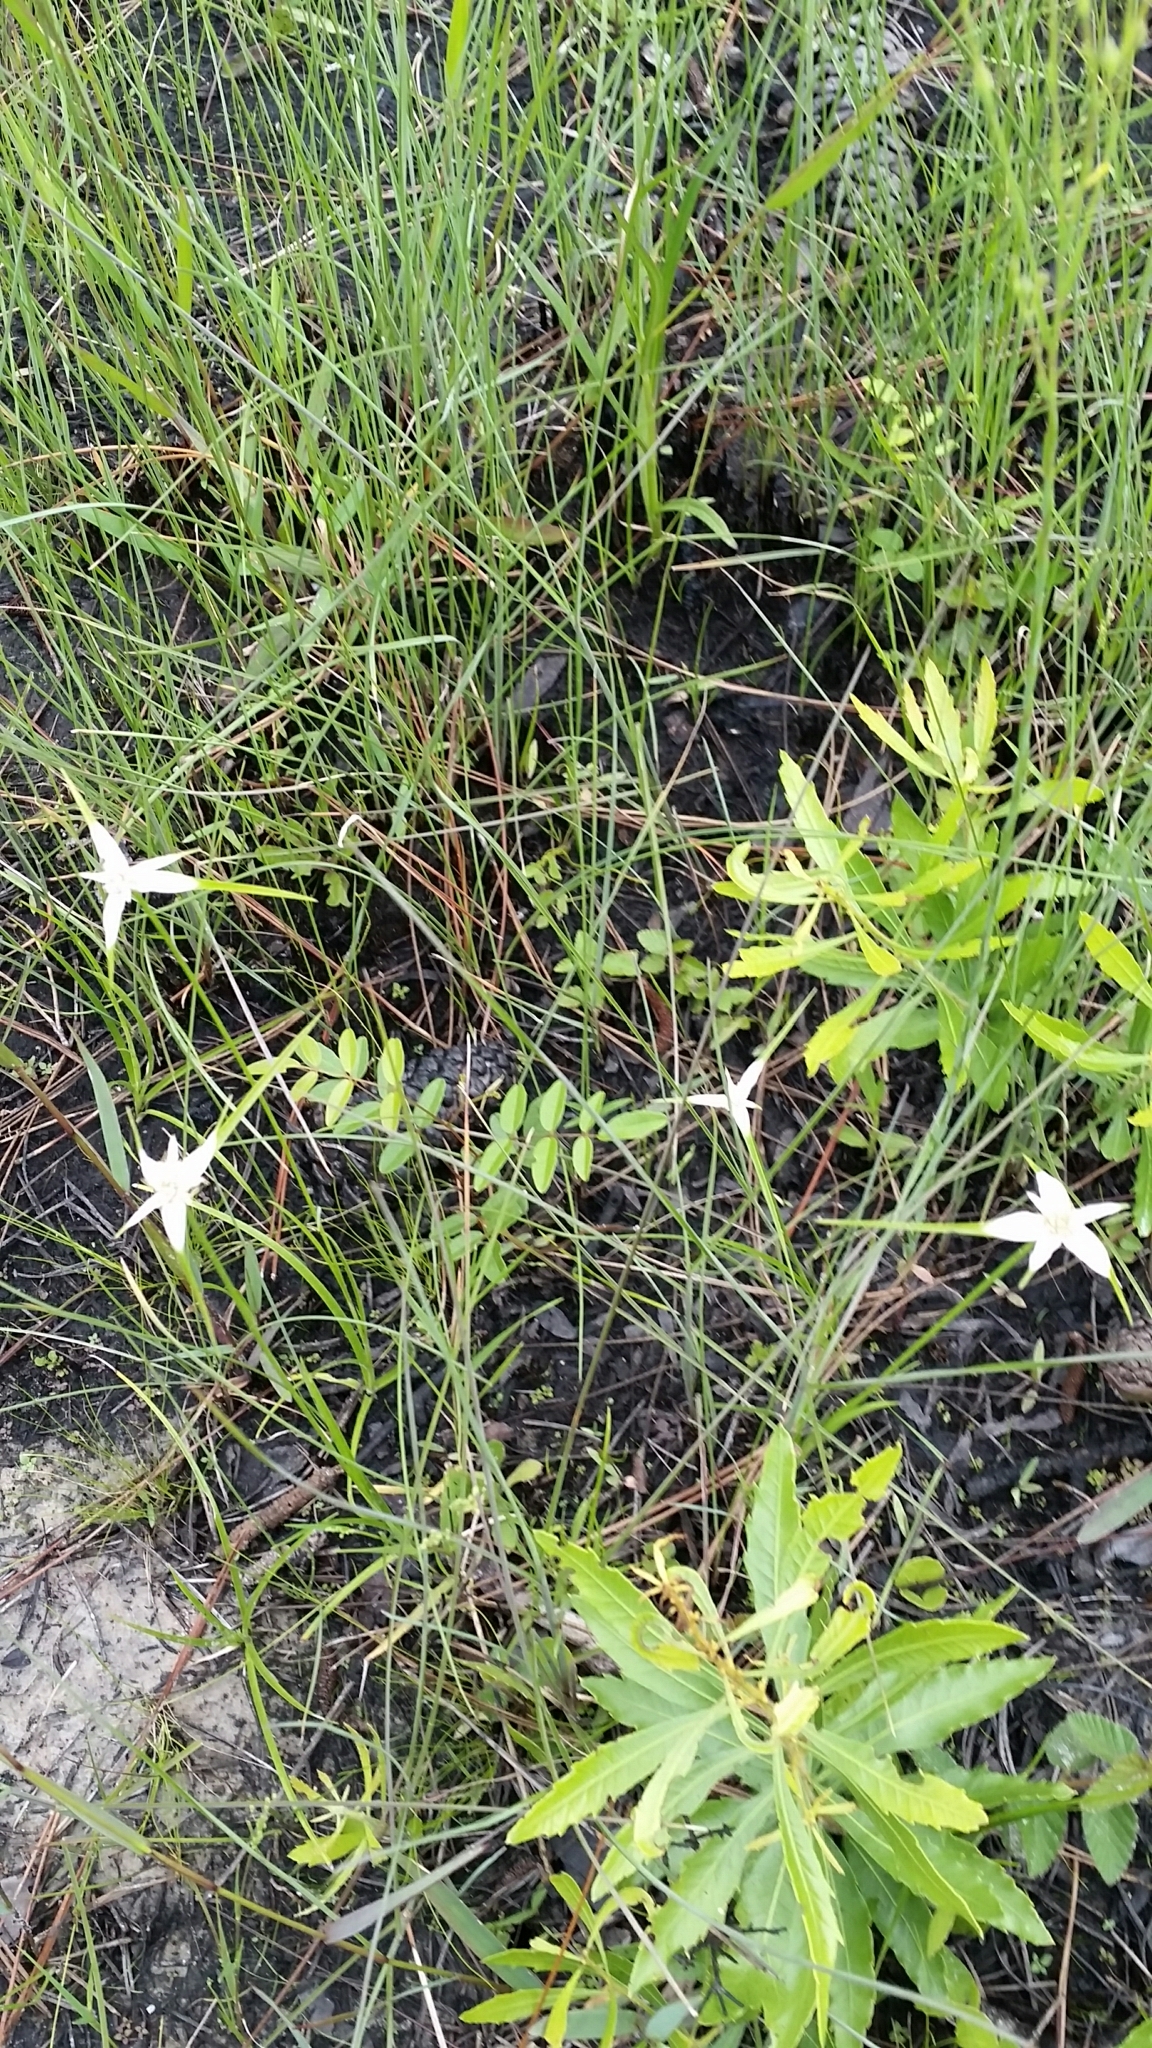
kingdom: Plantae
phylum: Tracheophyta
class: Liliopsida
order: Poales
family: Cyperaceae
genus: Rhynchospora
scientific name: Rhynchospora colorata
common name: Star sedge
